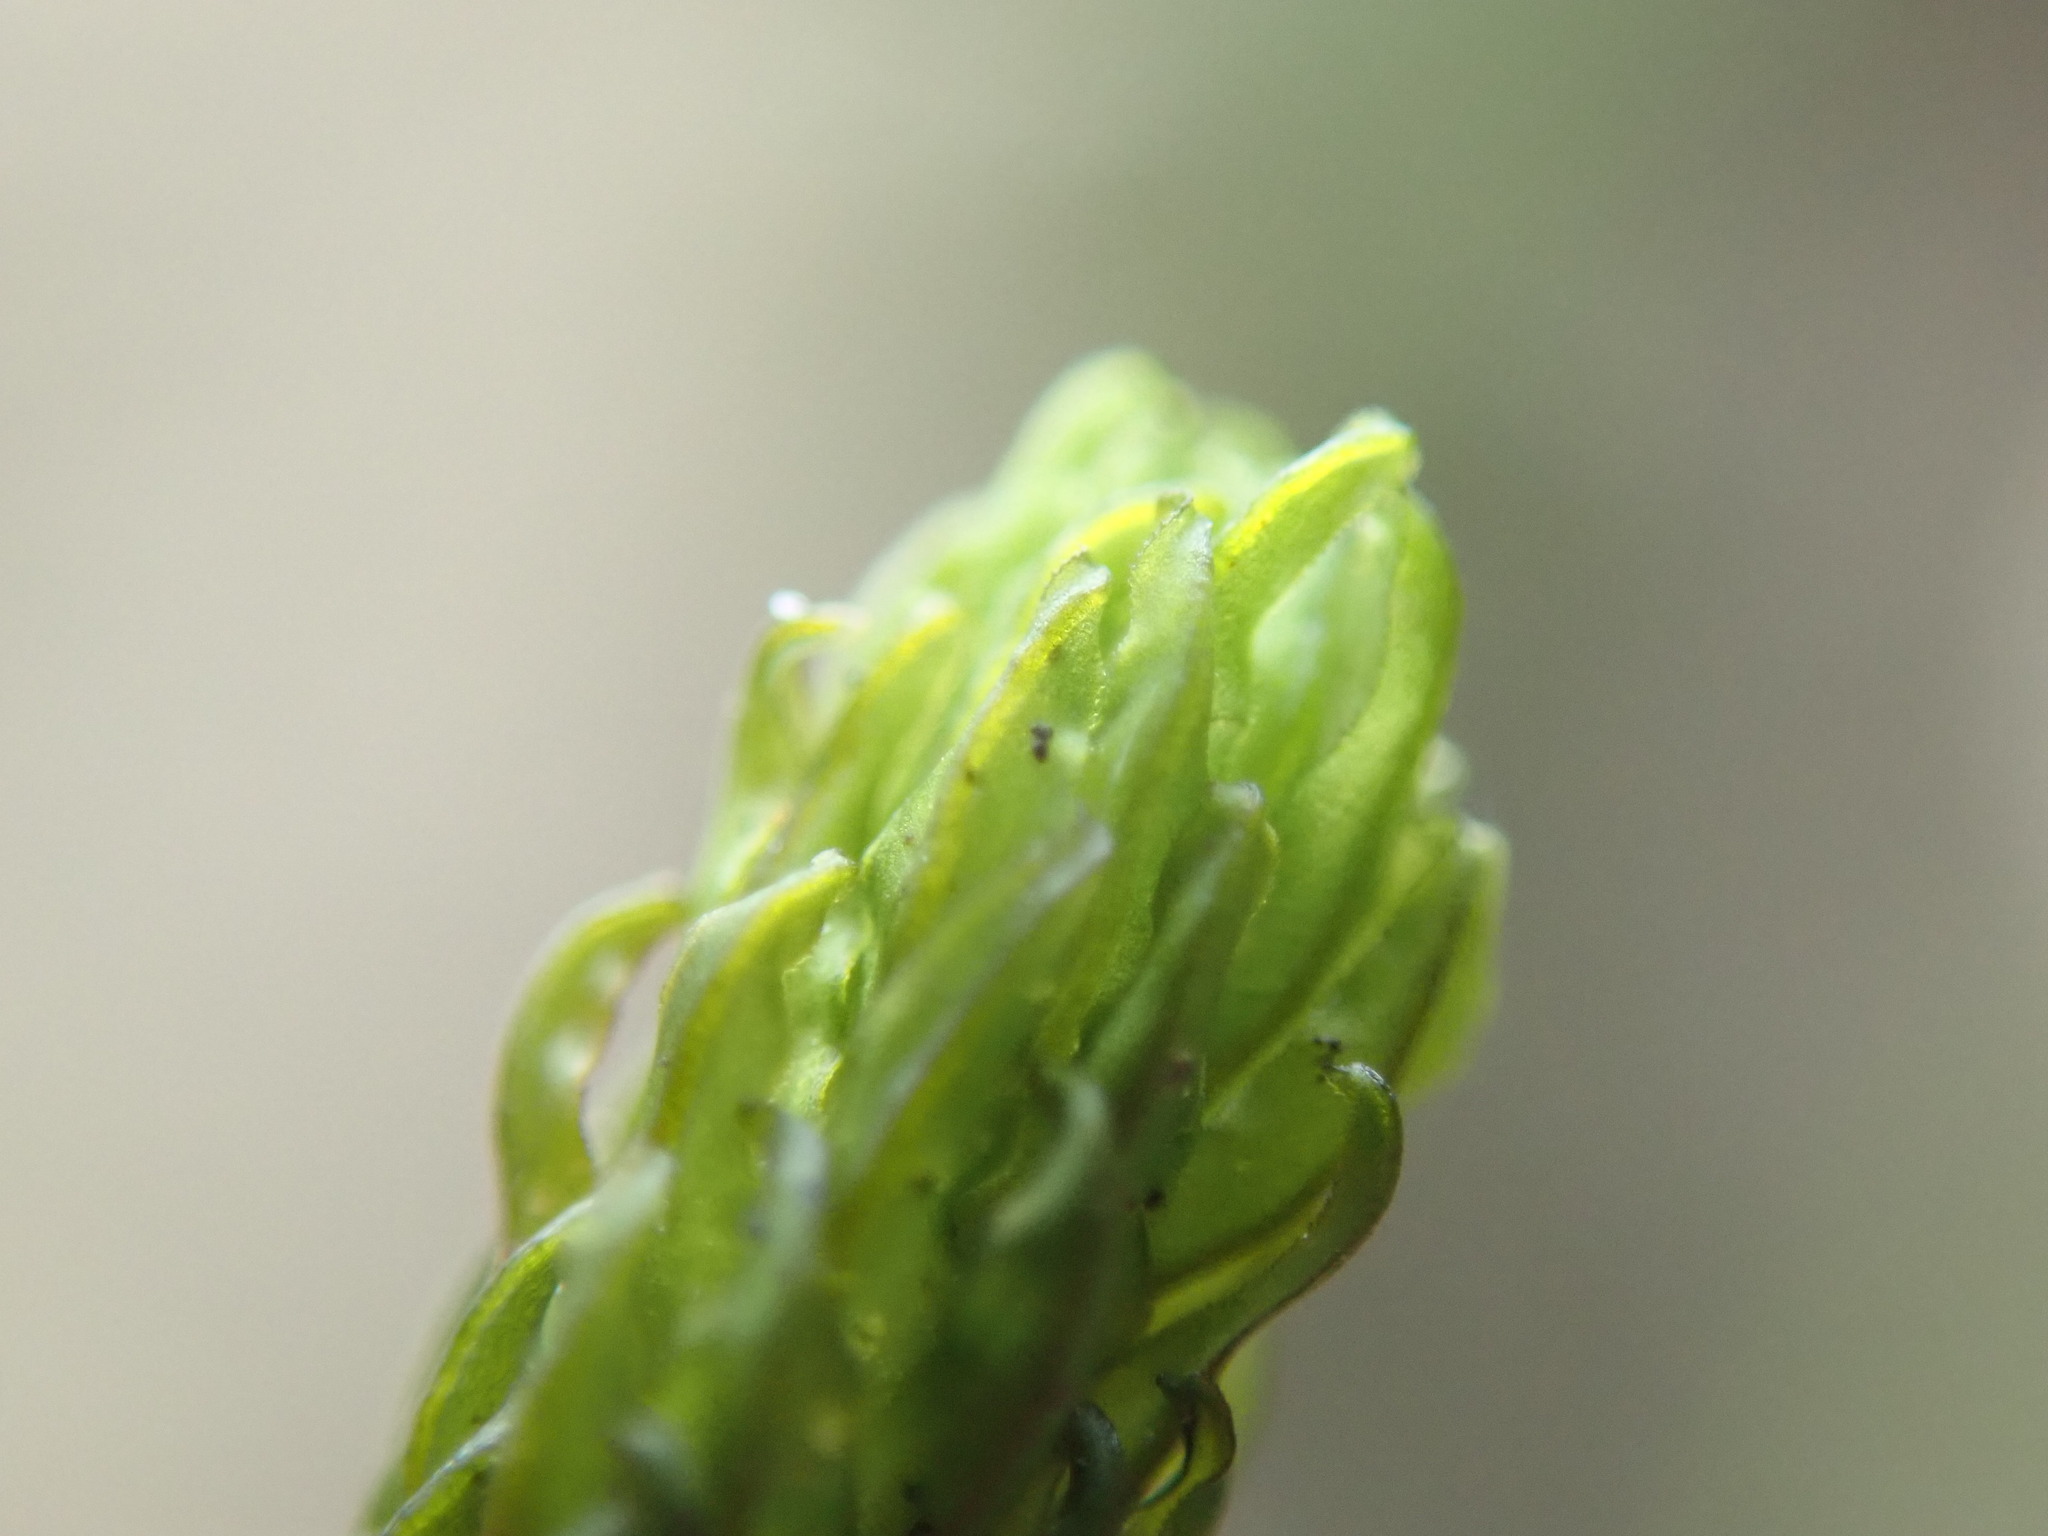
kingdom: Plantae
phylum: Bryophyta
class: Bryopsida
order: Scouleriales
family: Scouleriaceae
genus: Scouleria
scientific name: Scouleria aquatica
